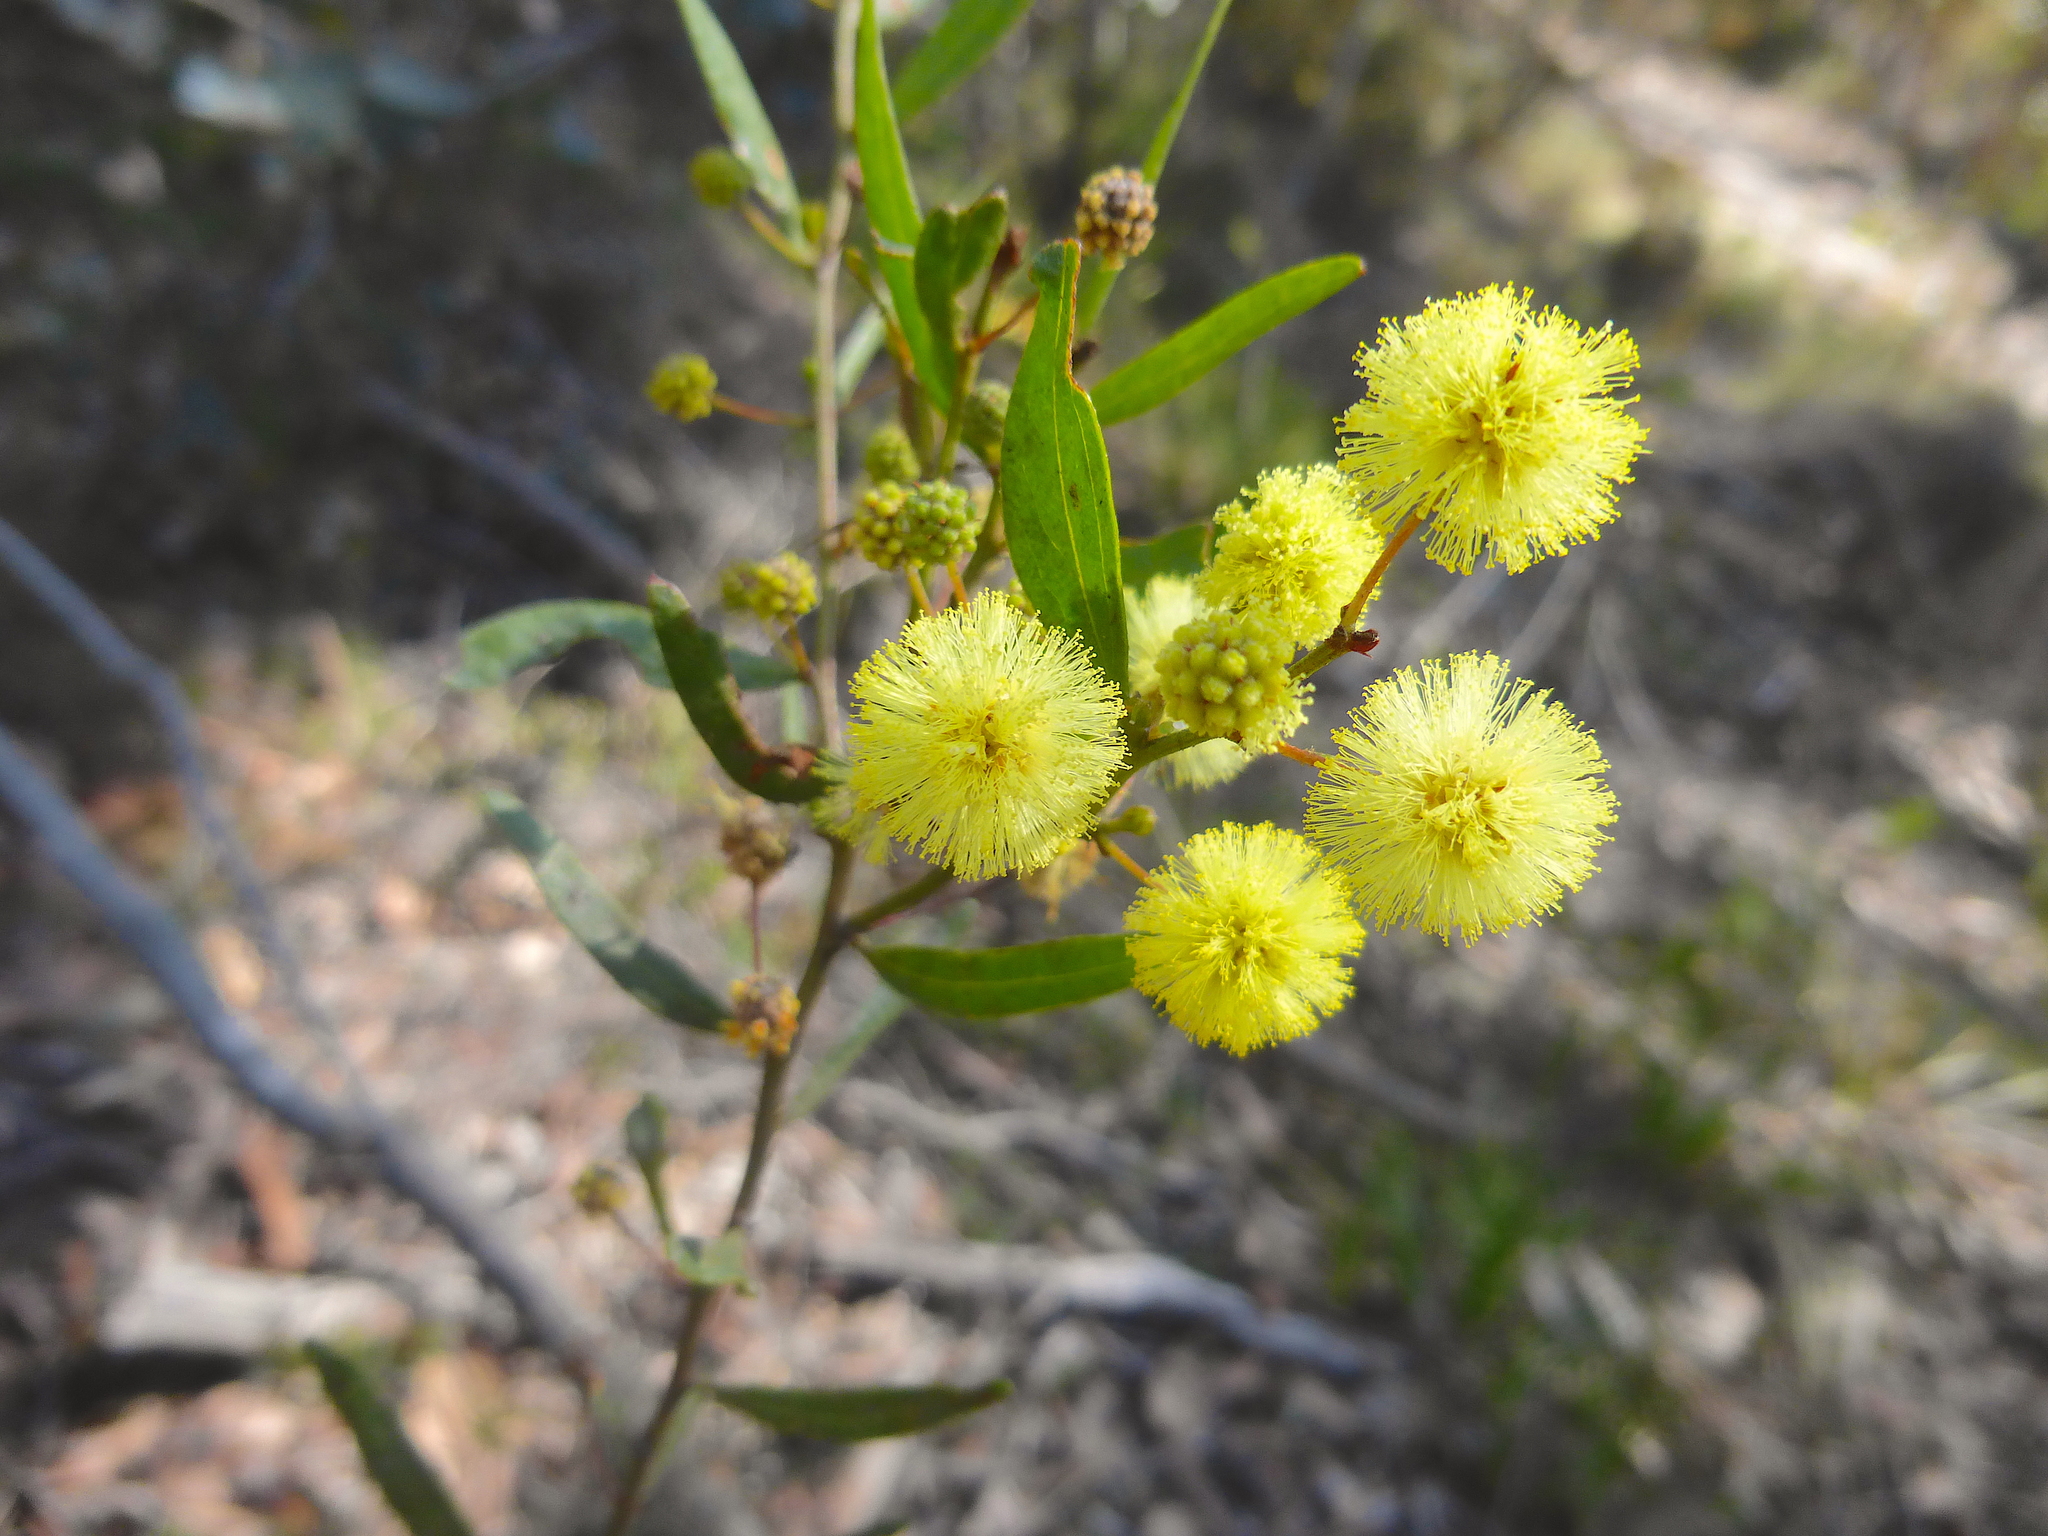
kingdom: Plantae
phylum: Tracheophyta
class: Magnoliopsida
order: Fabales
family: Fabaceae
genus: Acacia
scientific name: Acacia verniciflua
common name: Varnish wattle
